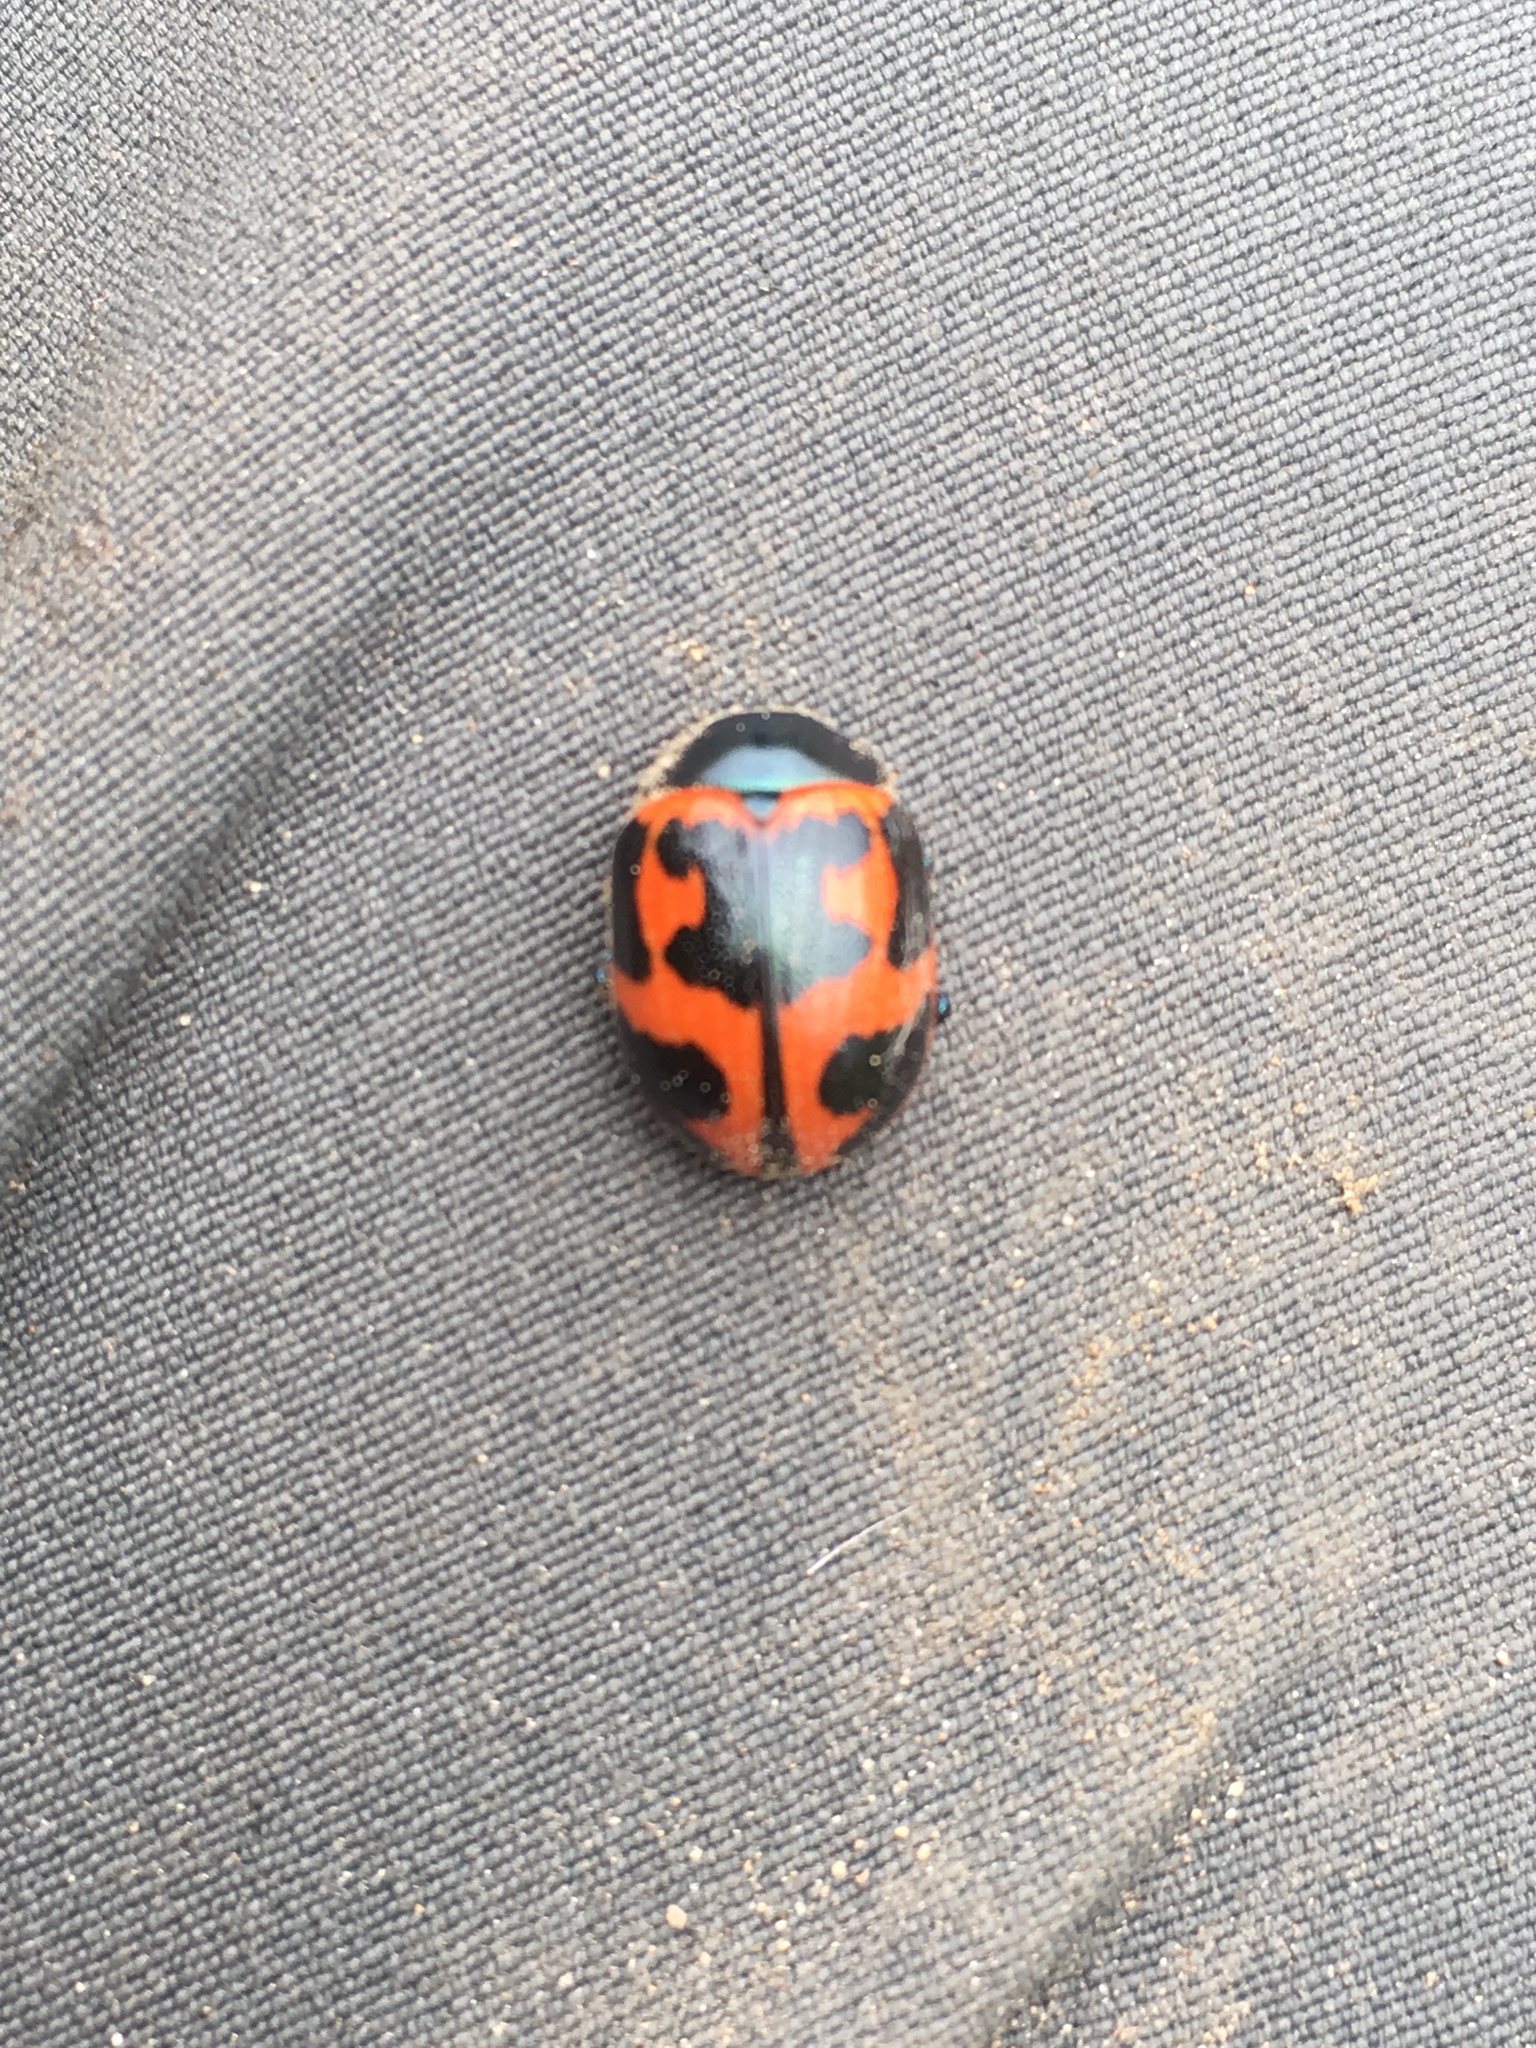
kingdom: Animalia
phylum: Arthropoda
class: Insecta
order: Coleoptera
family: Chrysomelidae
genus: Labidomera
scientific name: Labidomera clivicollis
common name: Swamp milkweed leaf beetle
